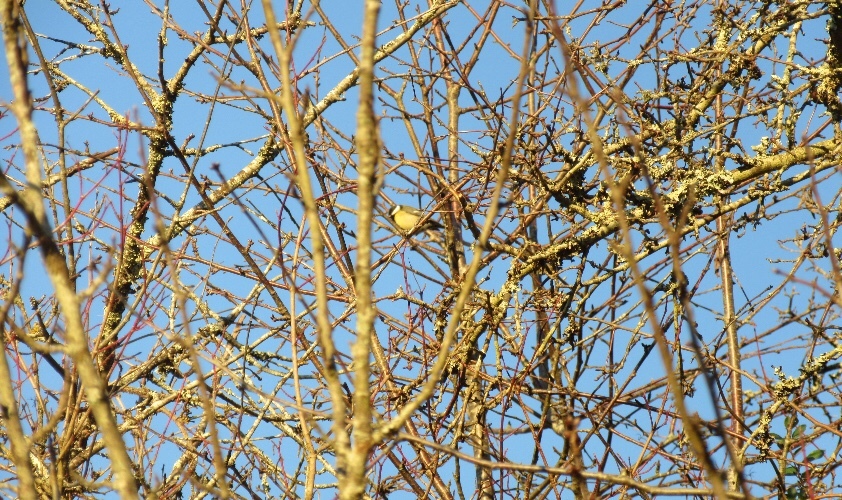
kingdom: Animalia
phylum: Chordata
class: Aves
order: Passeriformes
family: Paridae
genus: Parus
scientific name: Parus major
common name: Great tit
